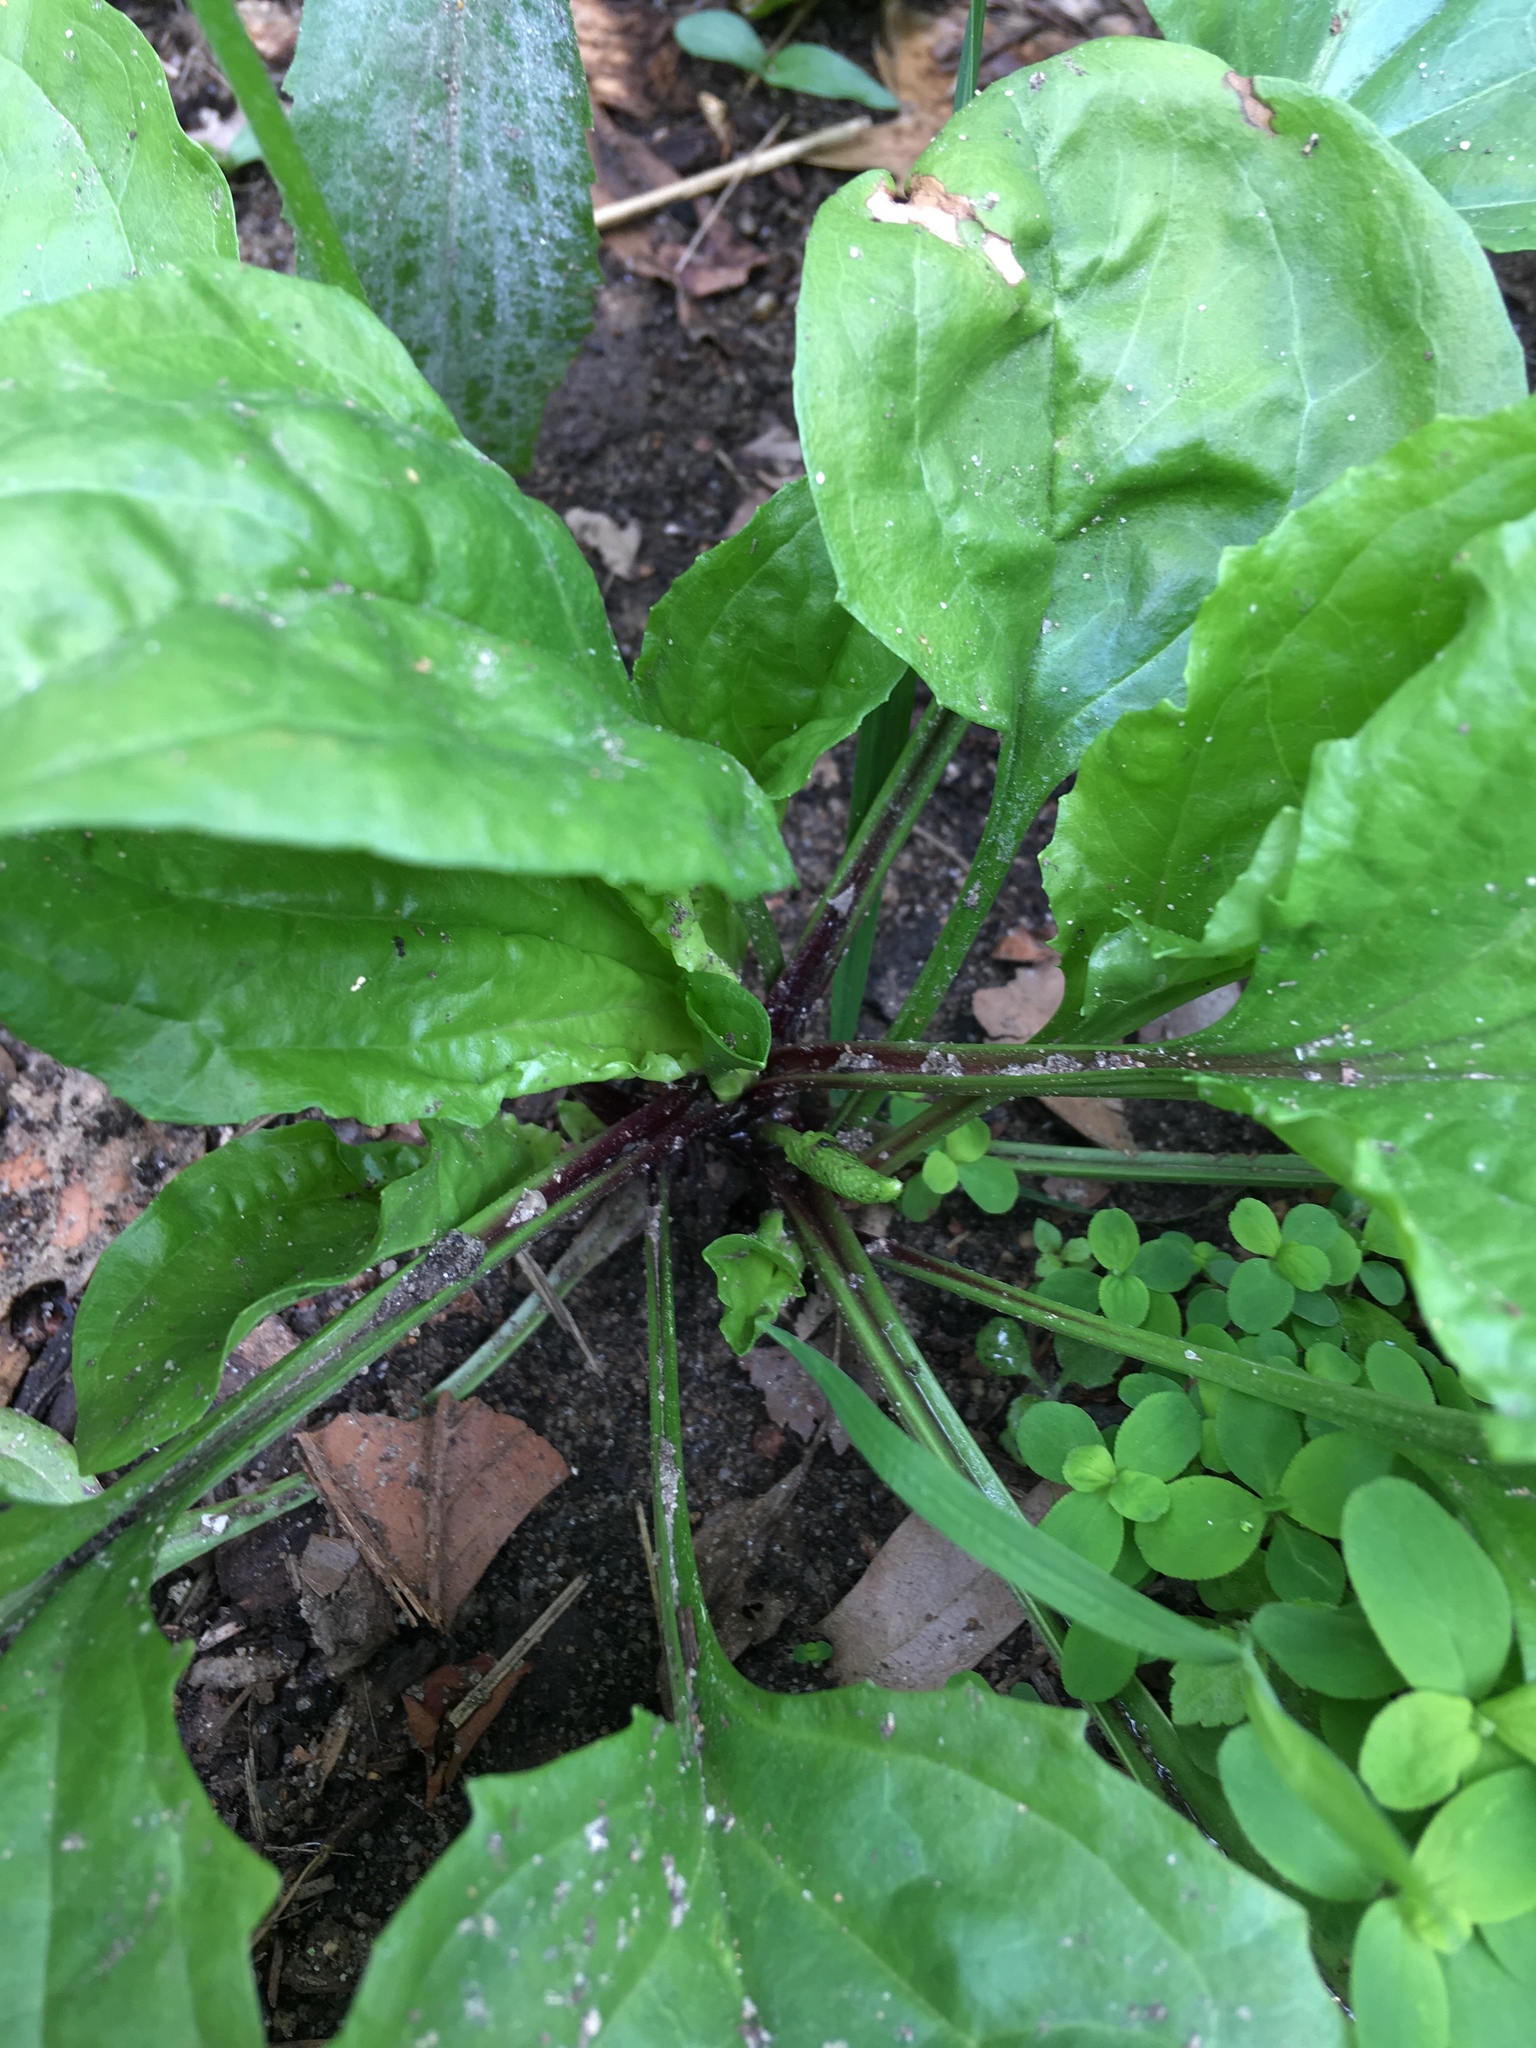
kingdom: Plantae
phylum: Tracheophyta
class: Magnoliopsida
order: Lamiales
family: Plantaginaceae
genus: Plantago
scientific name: Plantago rugelii
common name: American plantain
